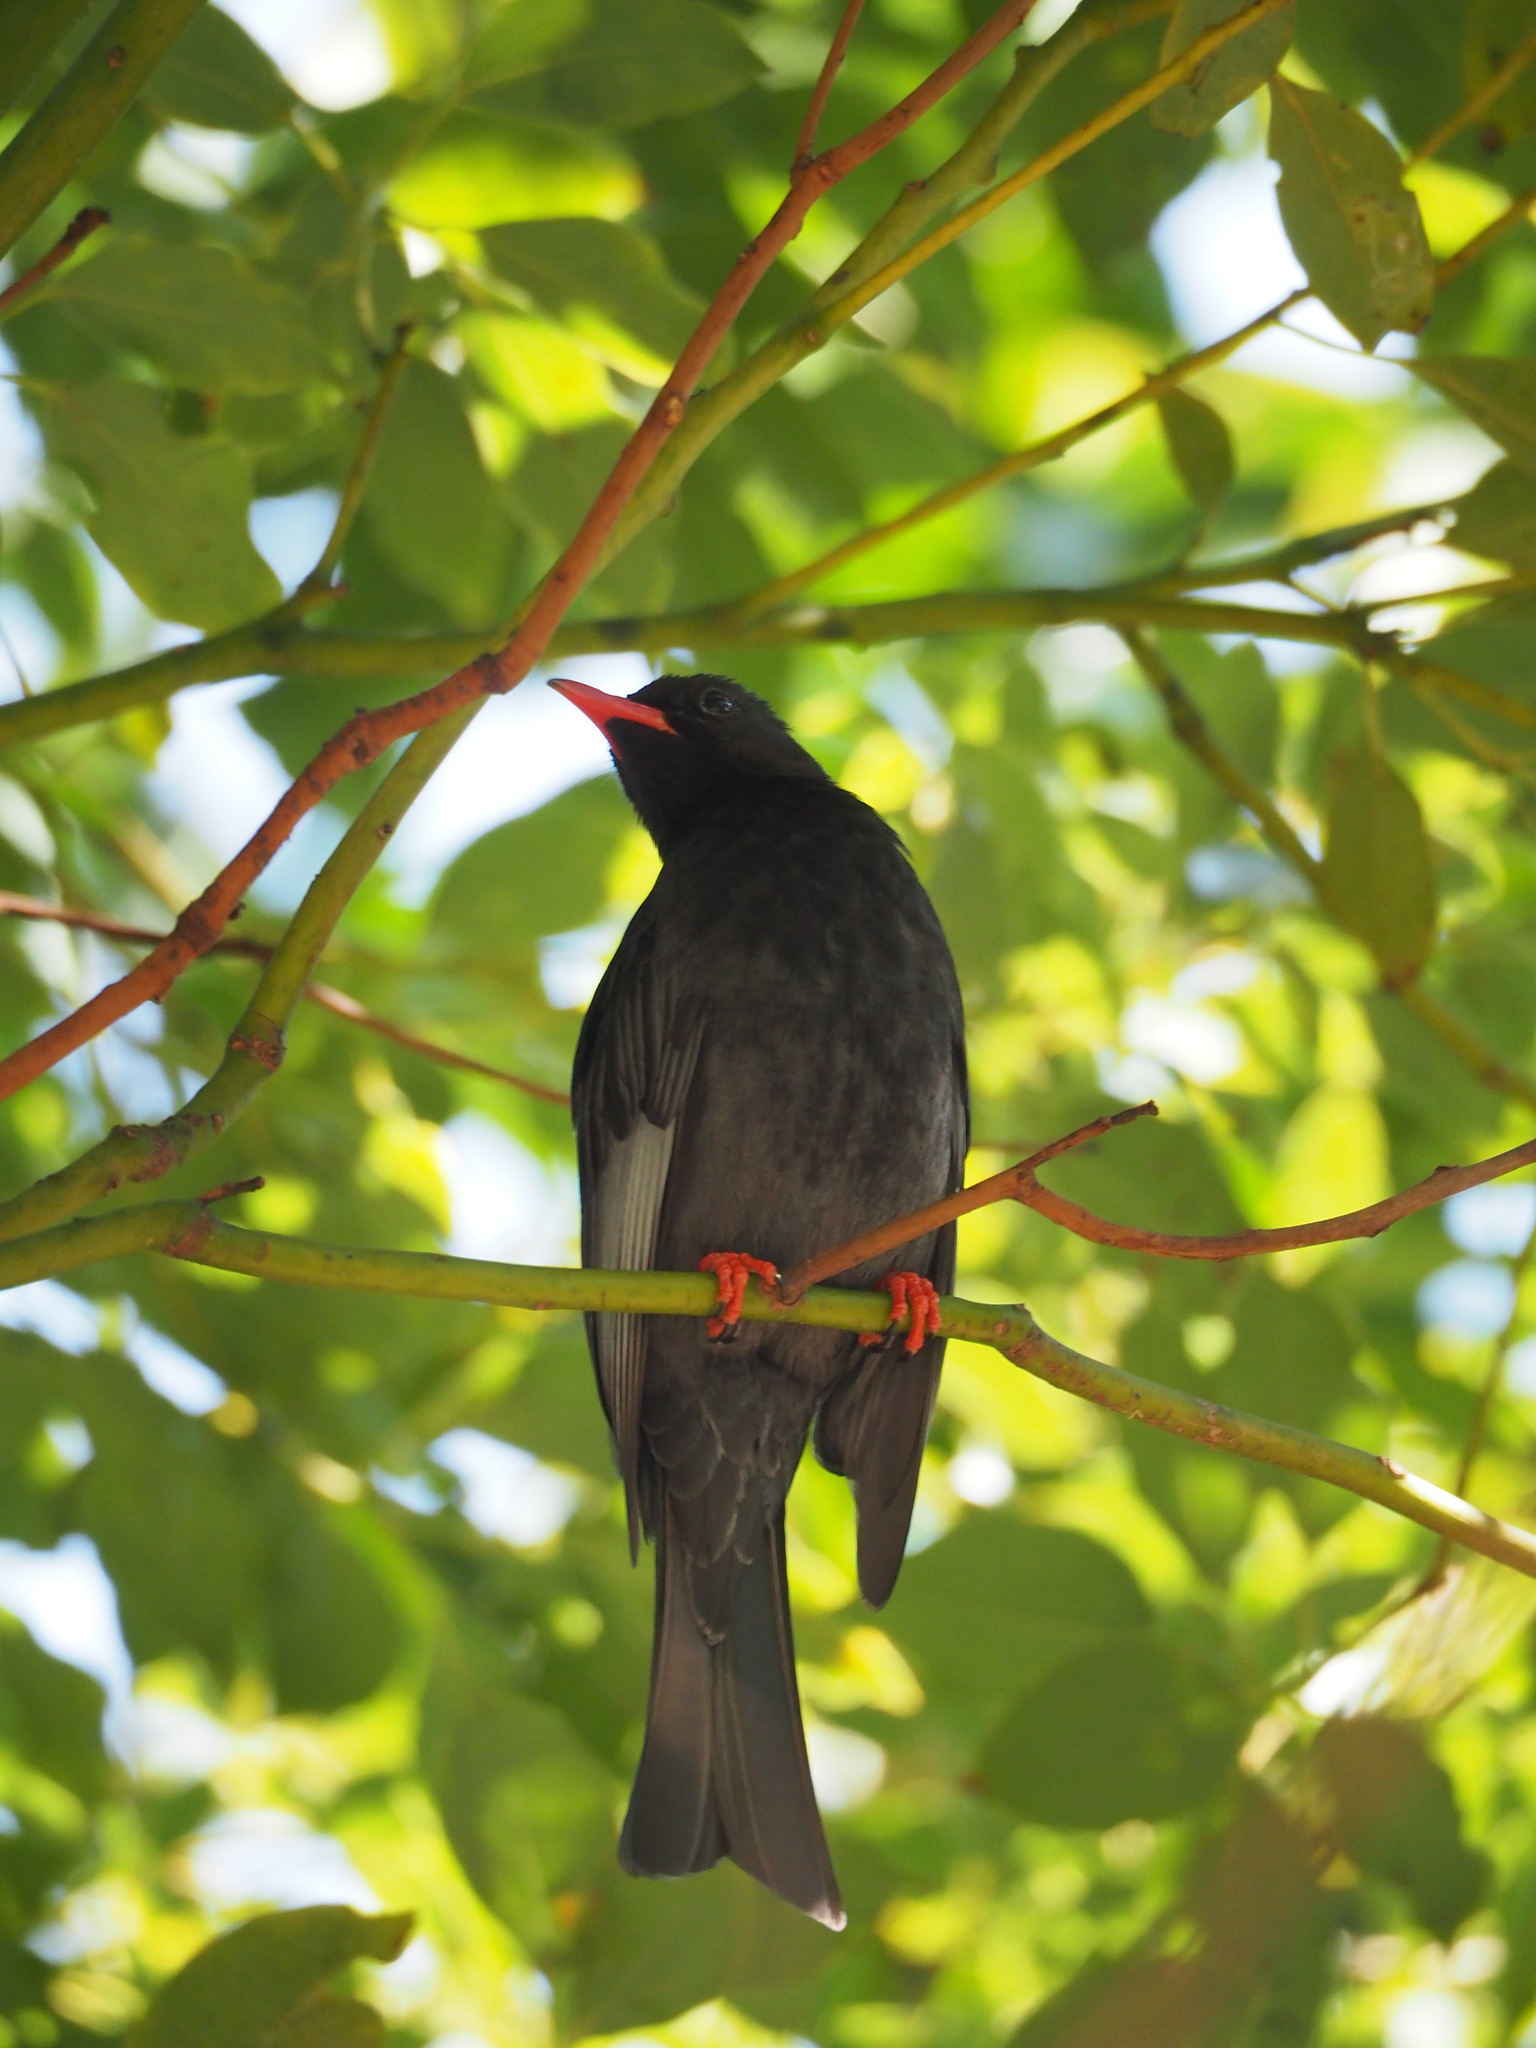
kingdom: Animalia
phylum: Chordata
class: Aves
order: Passeriformes
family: Pycnonotidae
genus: Hypsipetes
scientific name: Hypsipetes leucocephalus
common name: Black bulbul
